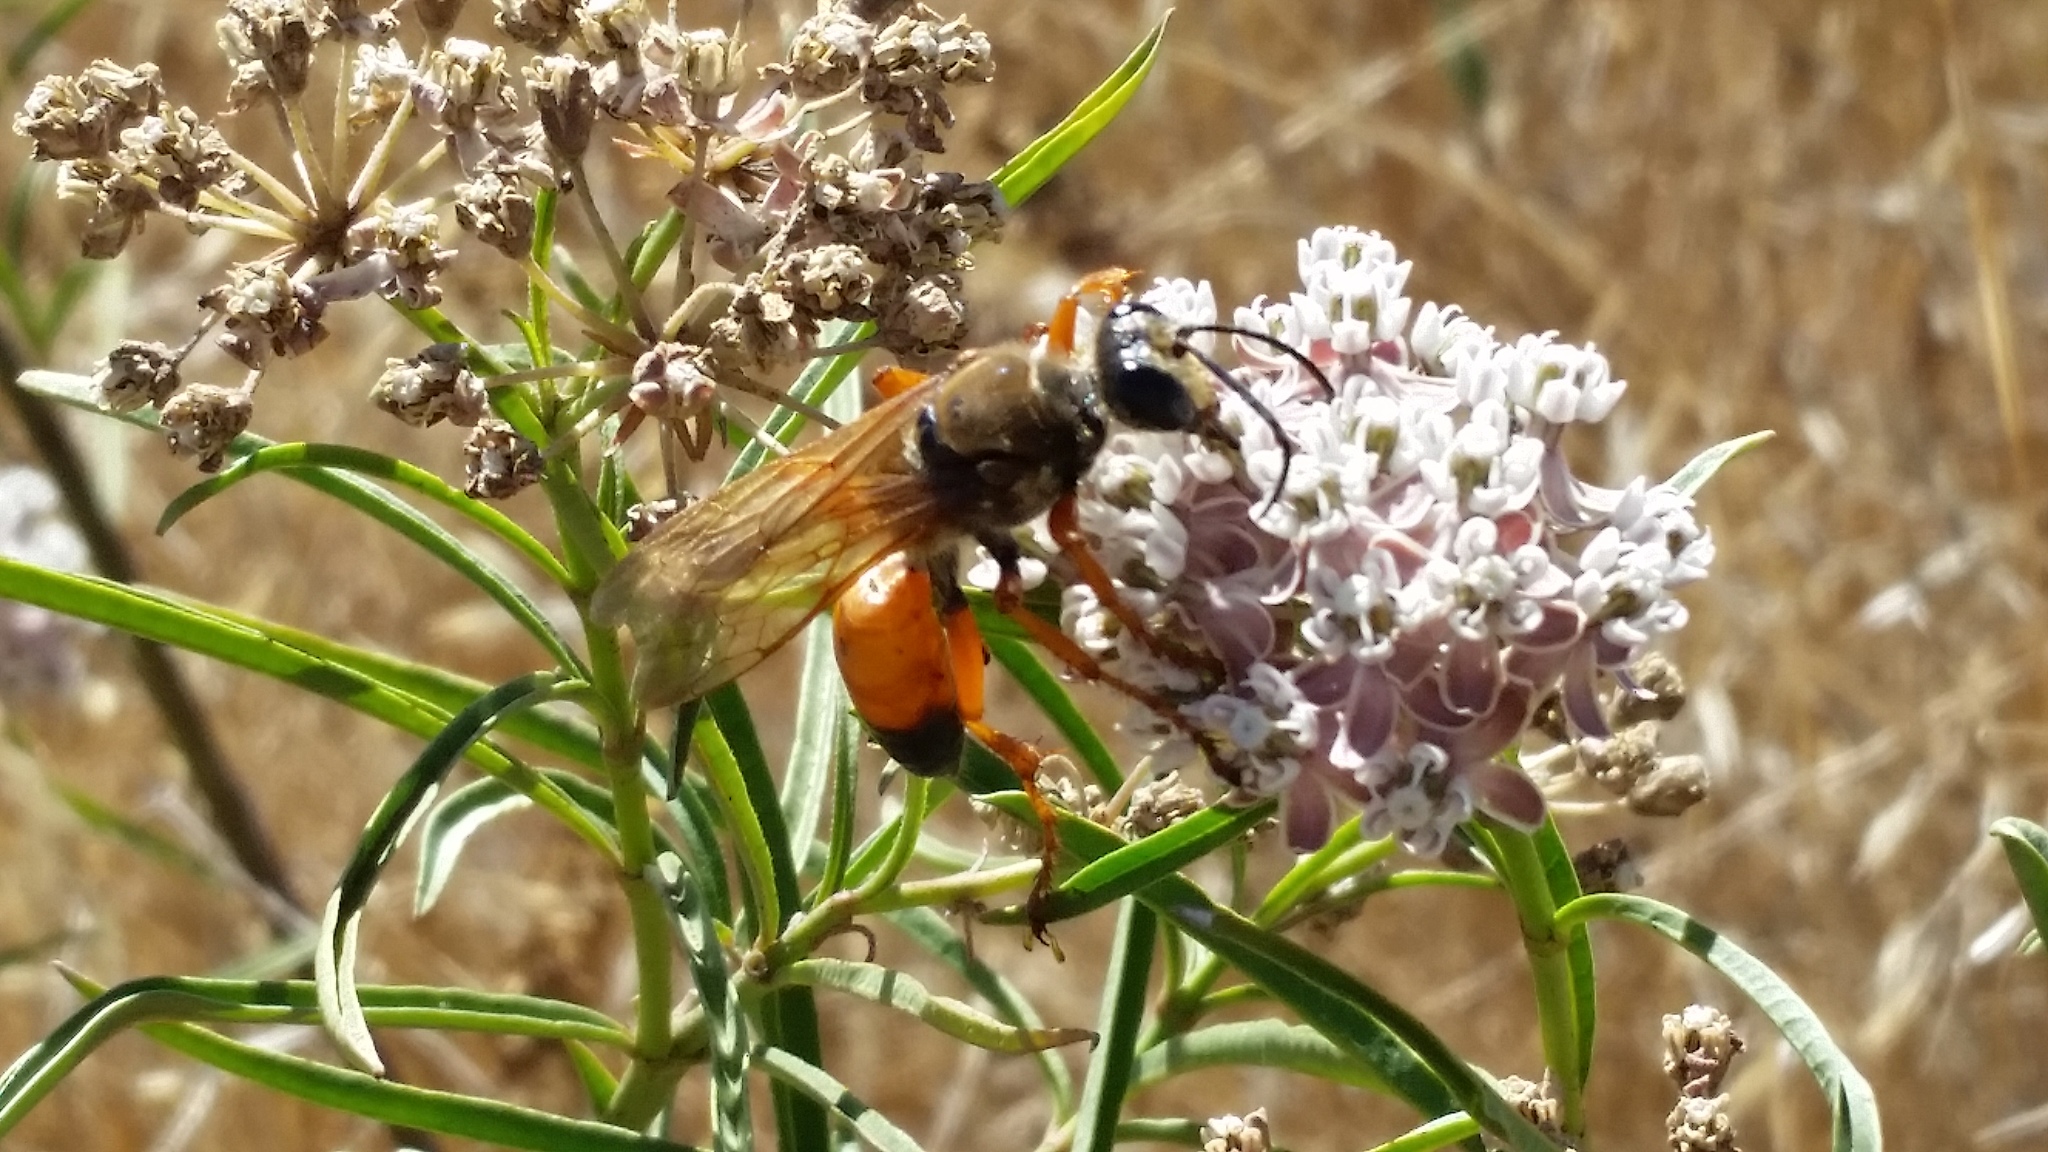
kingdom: Animalia
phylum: Arthropoda
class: Insecta
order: Hymenoptera
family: Sphecidae
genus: Sphex
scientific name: Sphex ichneumoneus
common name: Great golden digger wasp
